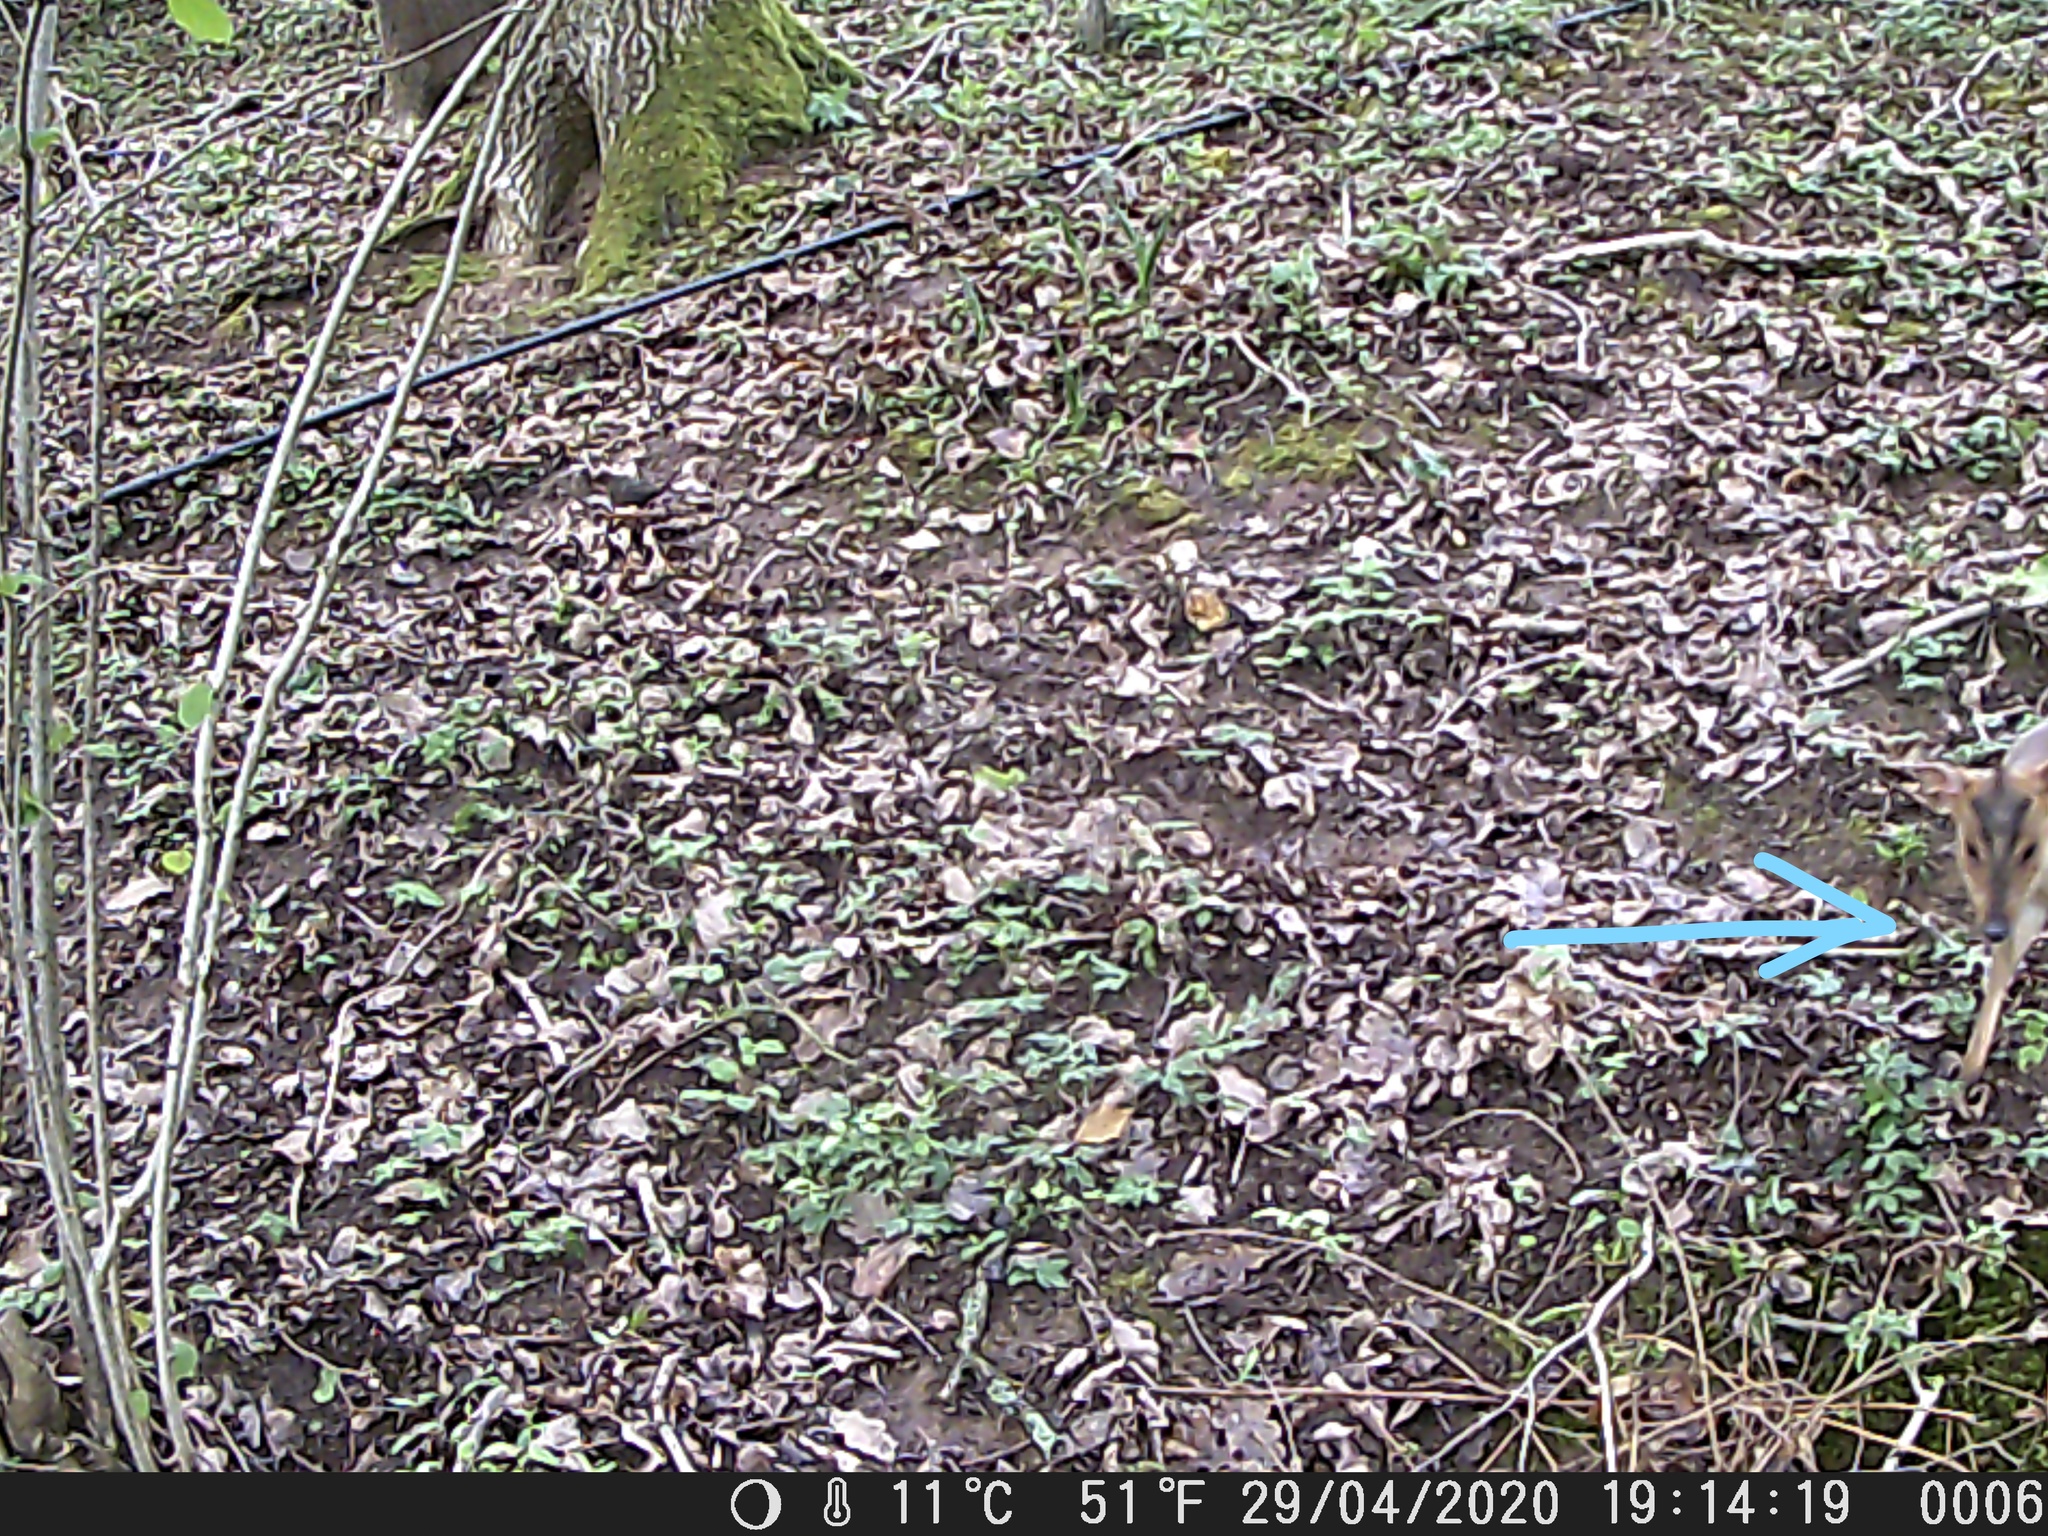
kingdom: Animalia
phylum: Chordata
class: Mammalia
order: Artiodactyla
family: Cervidae
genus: Muntiacus
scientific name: Muntiacus reevesi
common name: Reeves' muntjac
